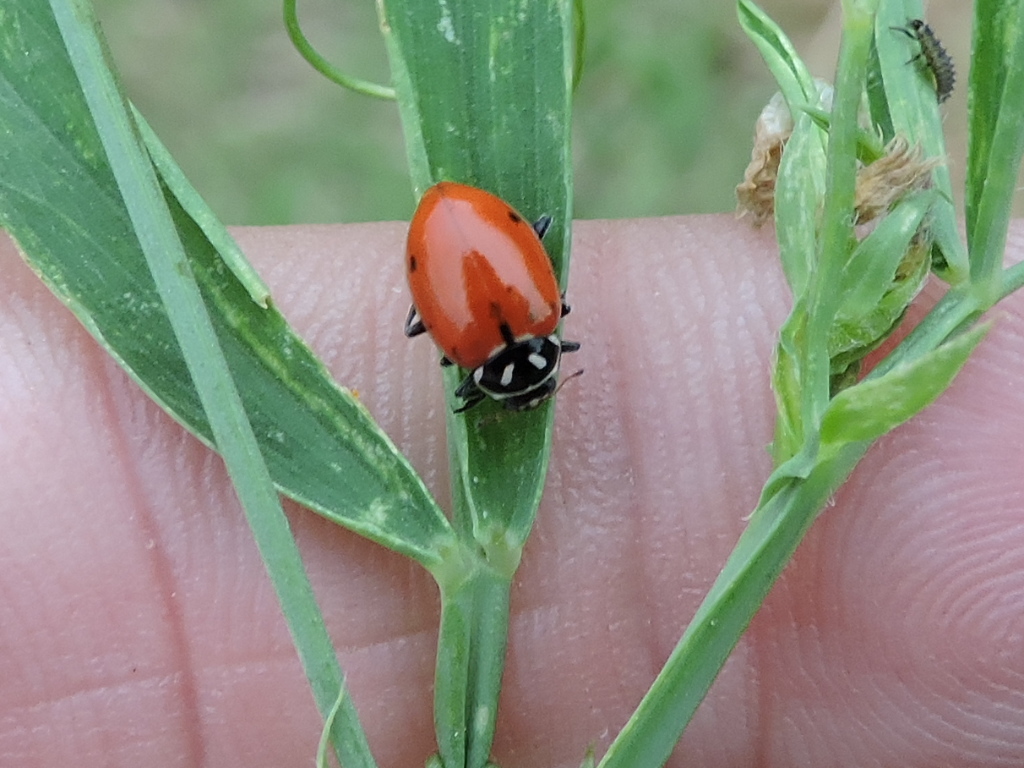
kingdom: Animalia
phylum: Arthropoda
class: Insecta
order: Coleoptera
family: Coccinellidae
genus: Hippodamia
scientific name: Hippodamia convergens
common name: Convergent lady beetle
